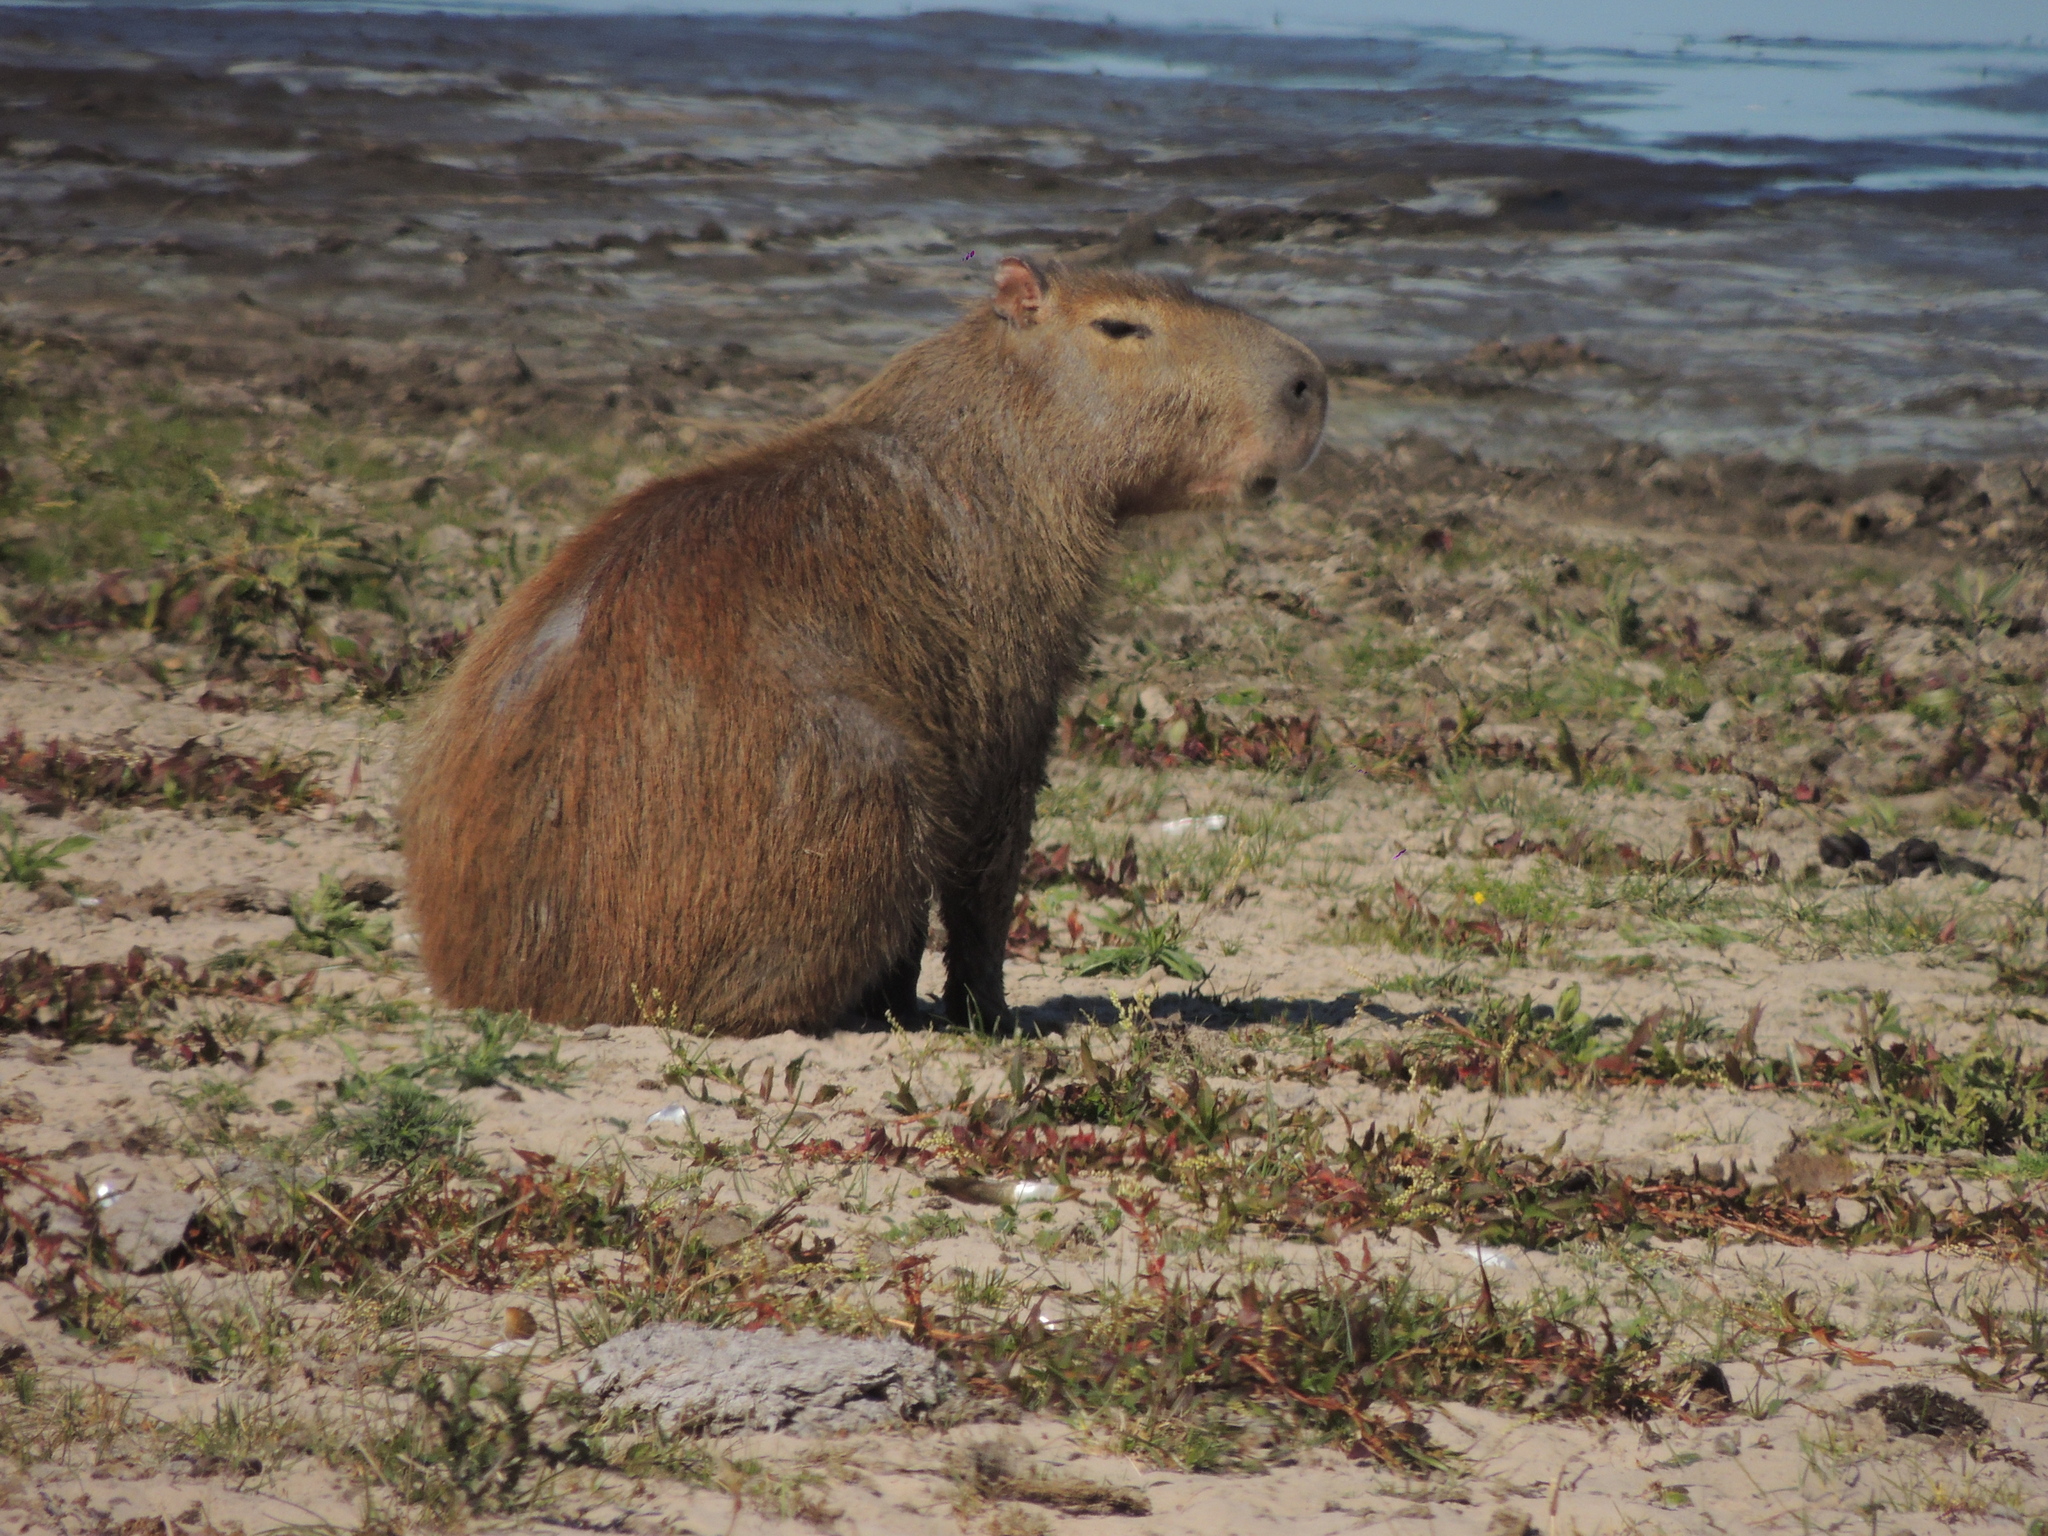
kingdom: Animalia
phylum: Chordata
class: Mammalia
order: Rodentia
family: Caviidae
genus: Hydrochoerus
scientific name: Hydrochoerus hydrochaeris
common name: Capybara
